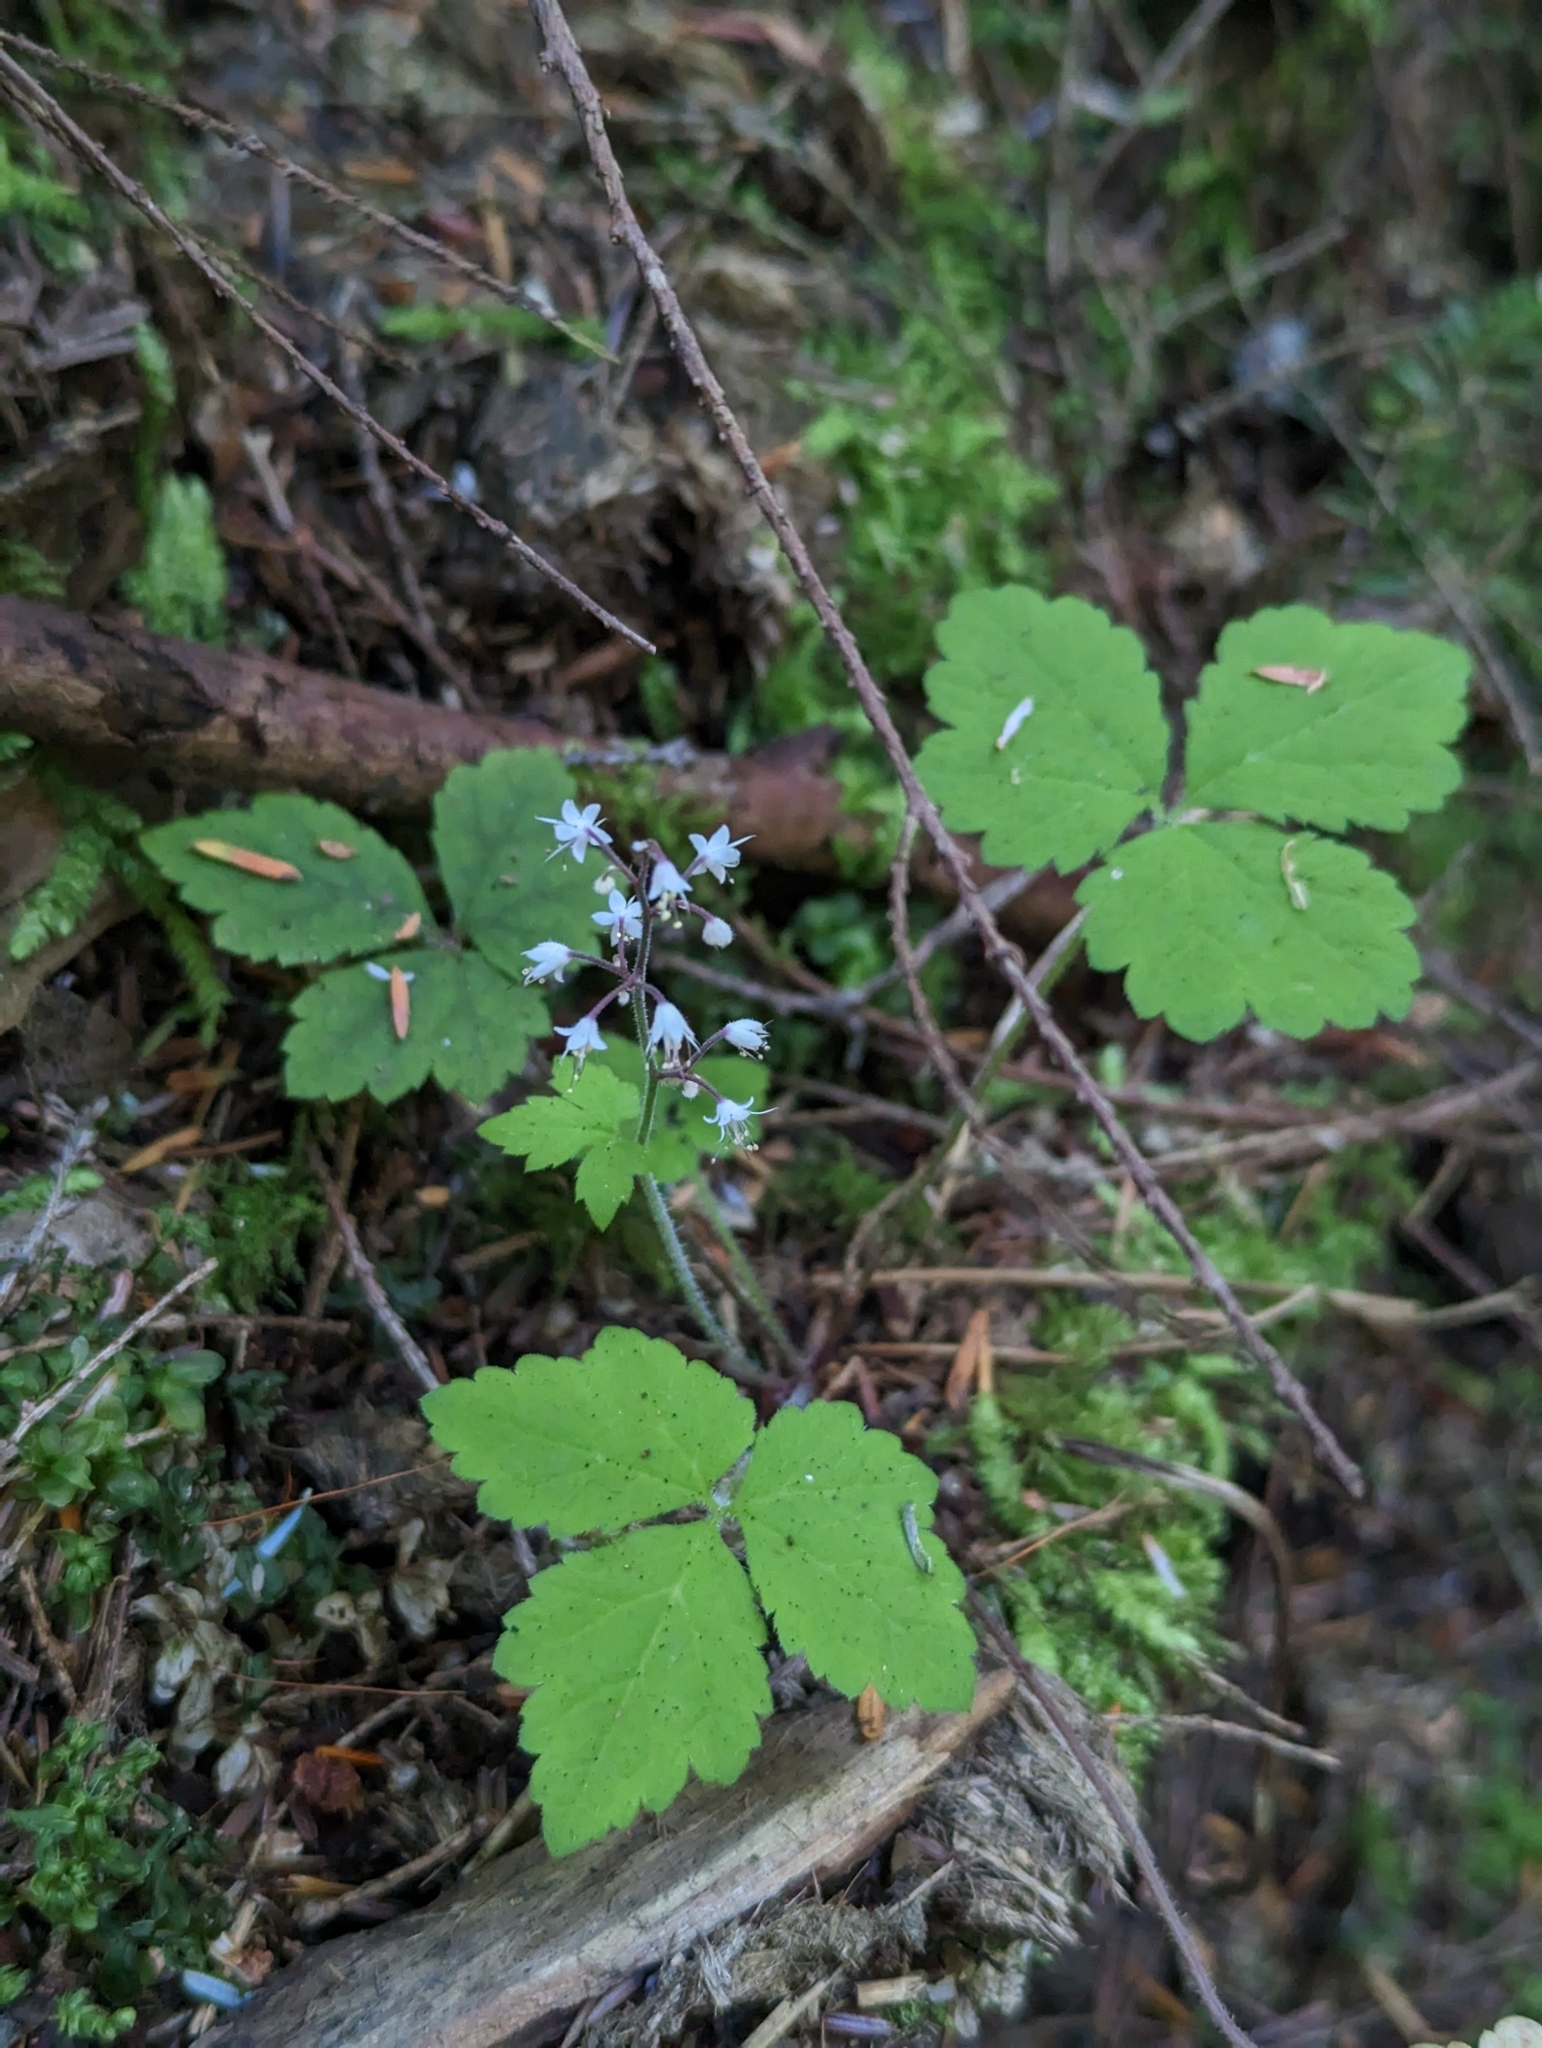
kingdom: Plantae
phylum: Tracheophyta
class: Magnoliopsida
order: Saxifragales
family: Saxifragaceae
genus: Tiarella
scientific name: Tiarella trifoliata
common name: Sugar-scoop
